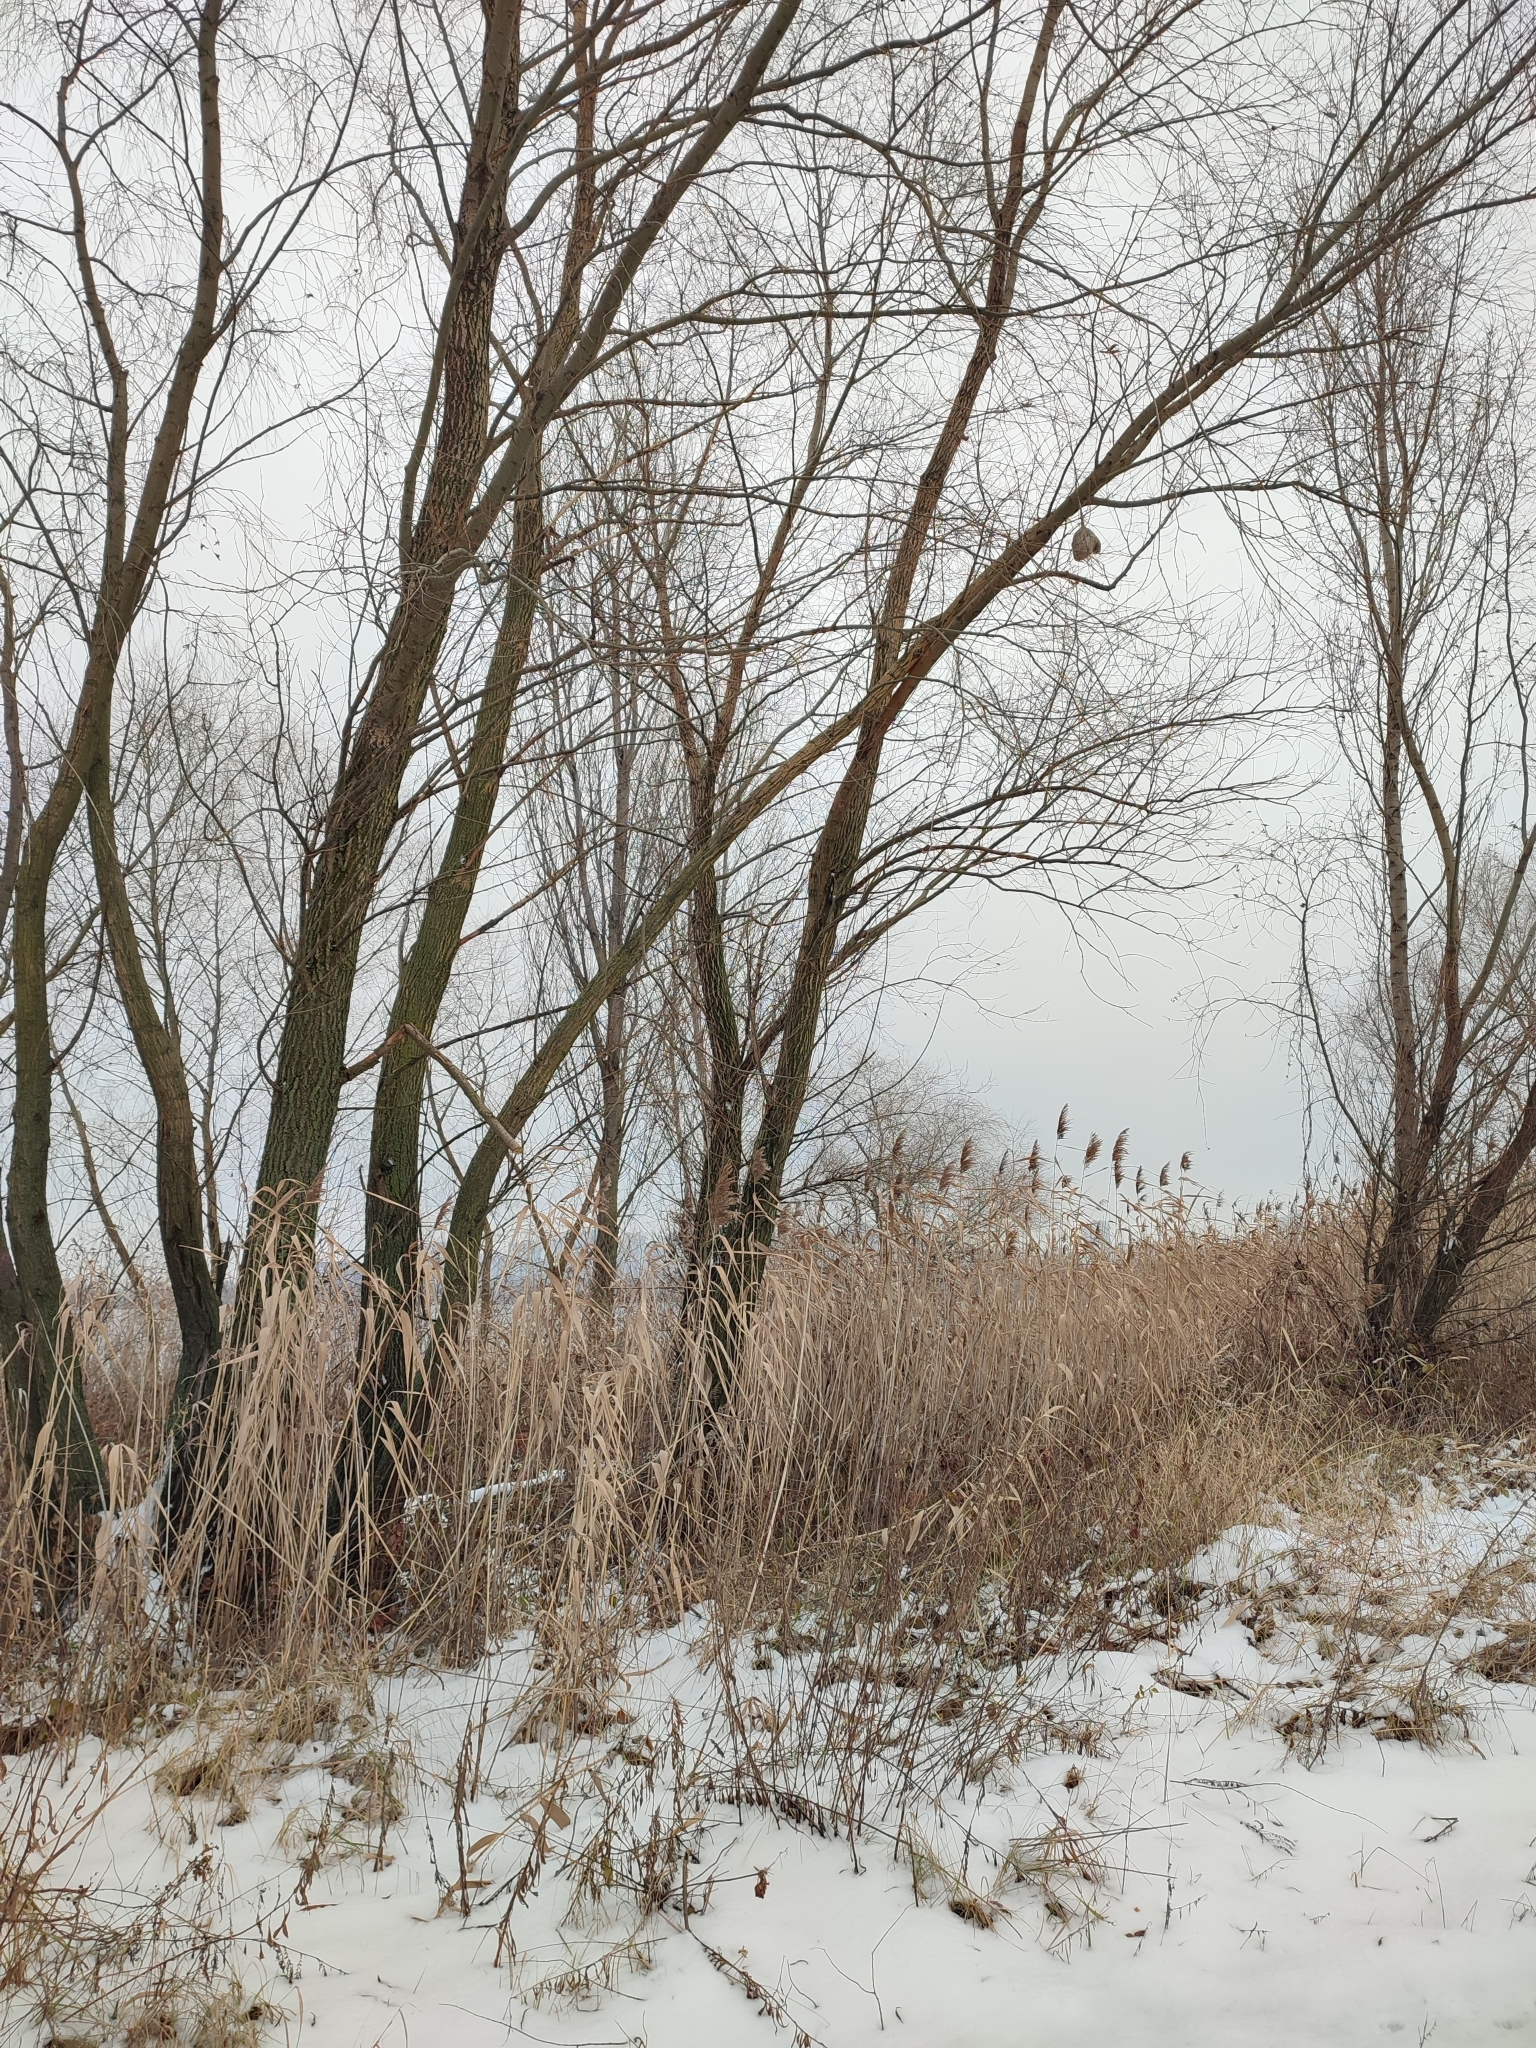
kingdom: Plantae
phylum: Tracheophyta
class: Liliopsida
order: Poales
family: Poaceae
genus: Phragmites
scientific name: Phragmites australis
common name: Common reed
